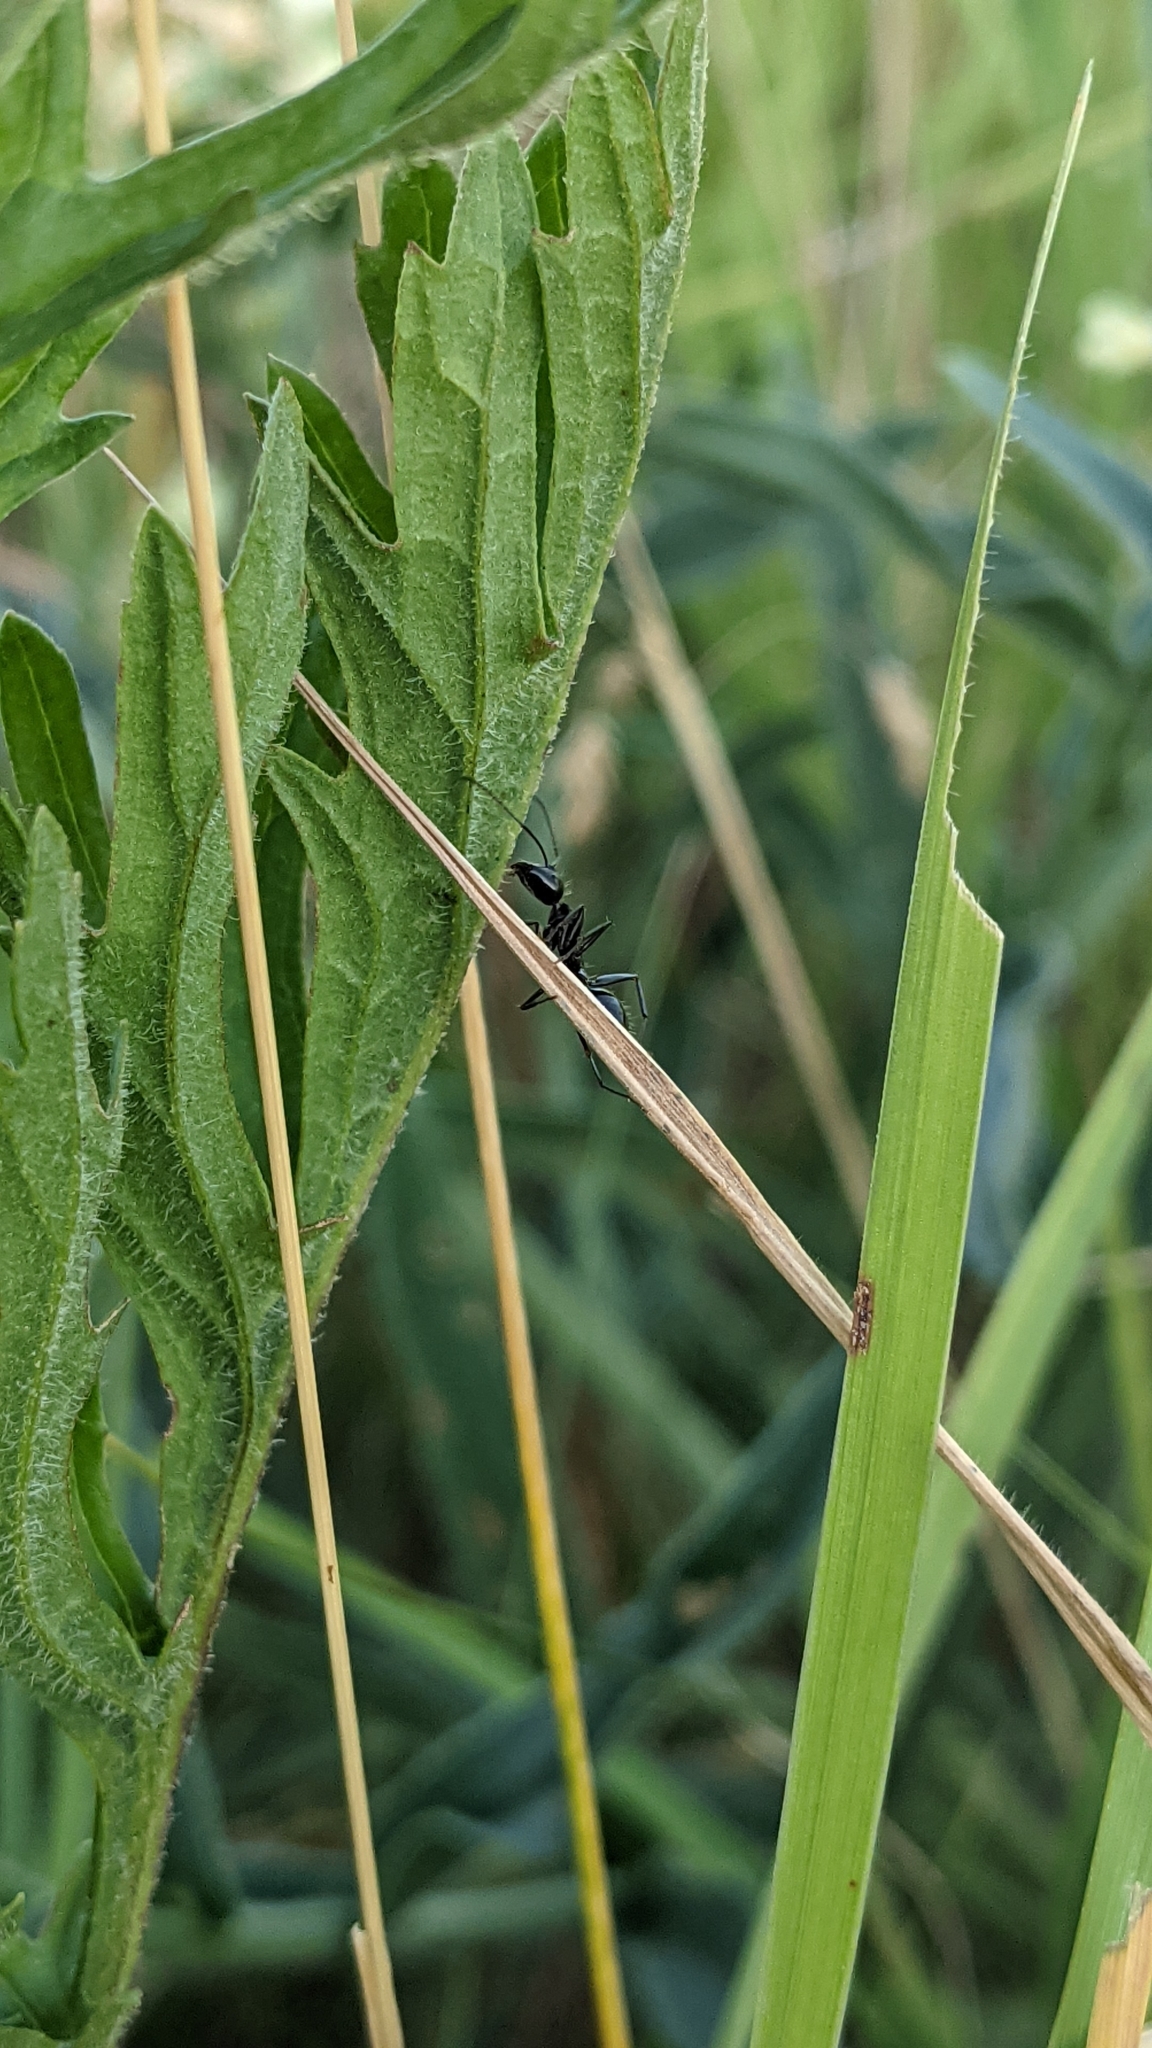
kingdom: Animalia
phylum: Arthropoda
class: Insecta
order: Hymenoptera
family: Formicidae
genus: Camponotus
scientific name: Camponotus aethiops
